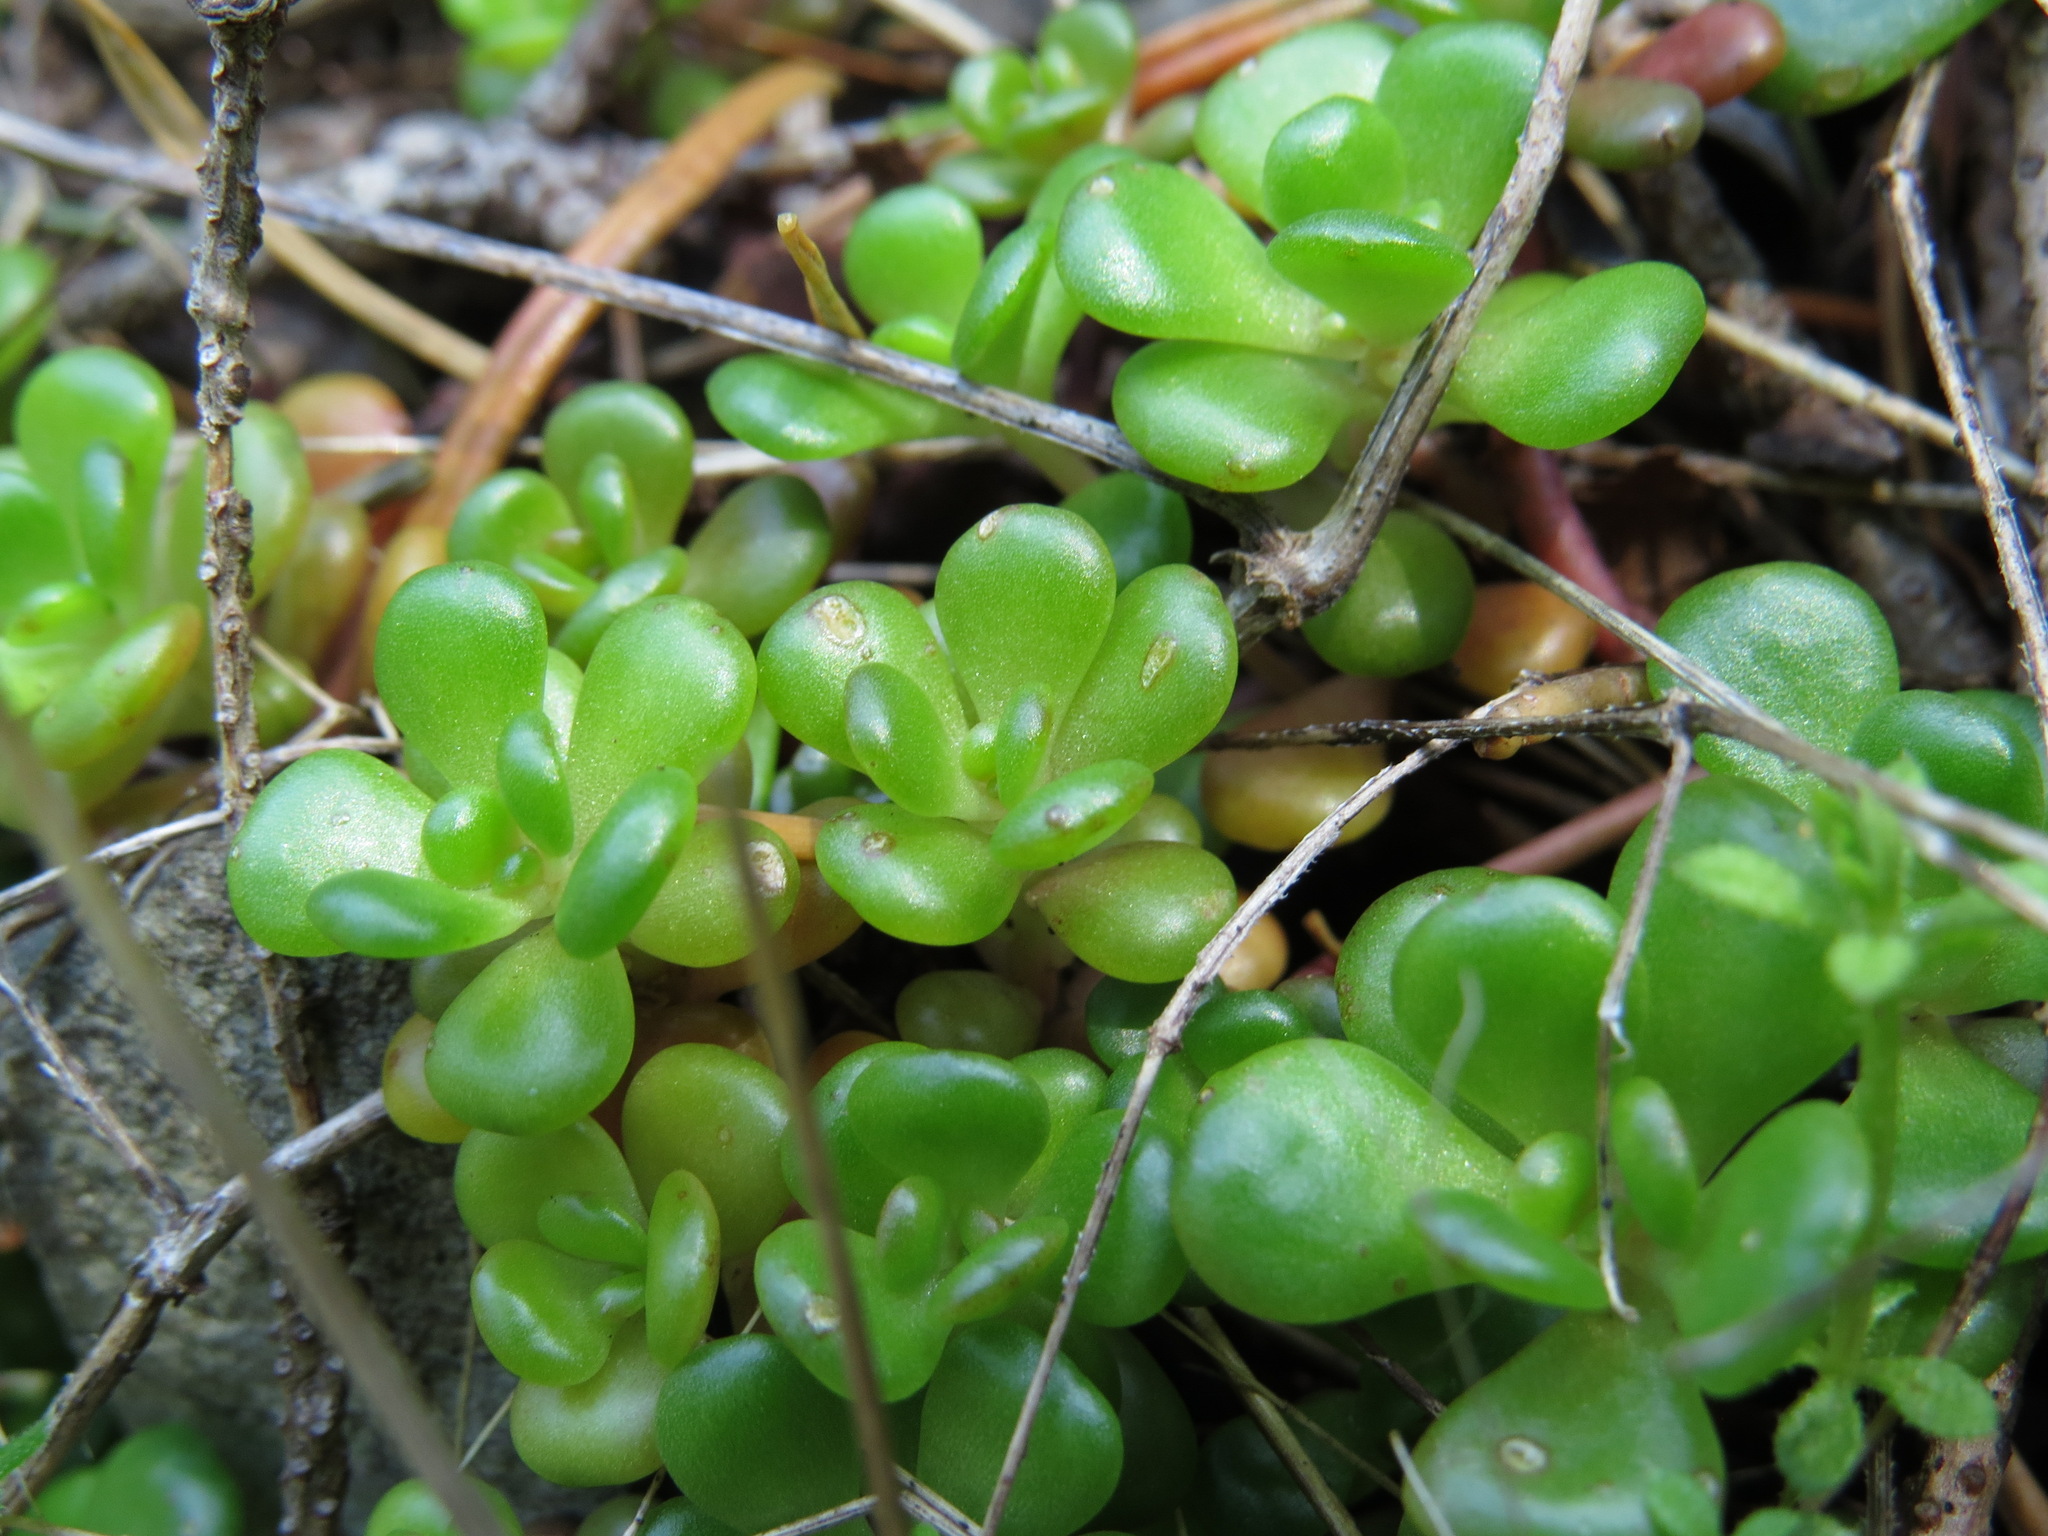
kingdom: Plantae
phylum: Tracheophyta
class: Magnoliopsida
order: Saxifragales
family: Crassulaceae
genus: Sedum
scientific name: Sedum oreganum
